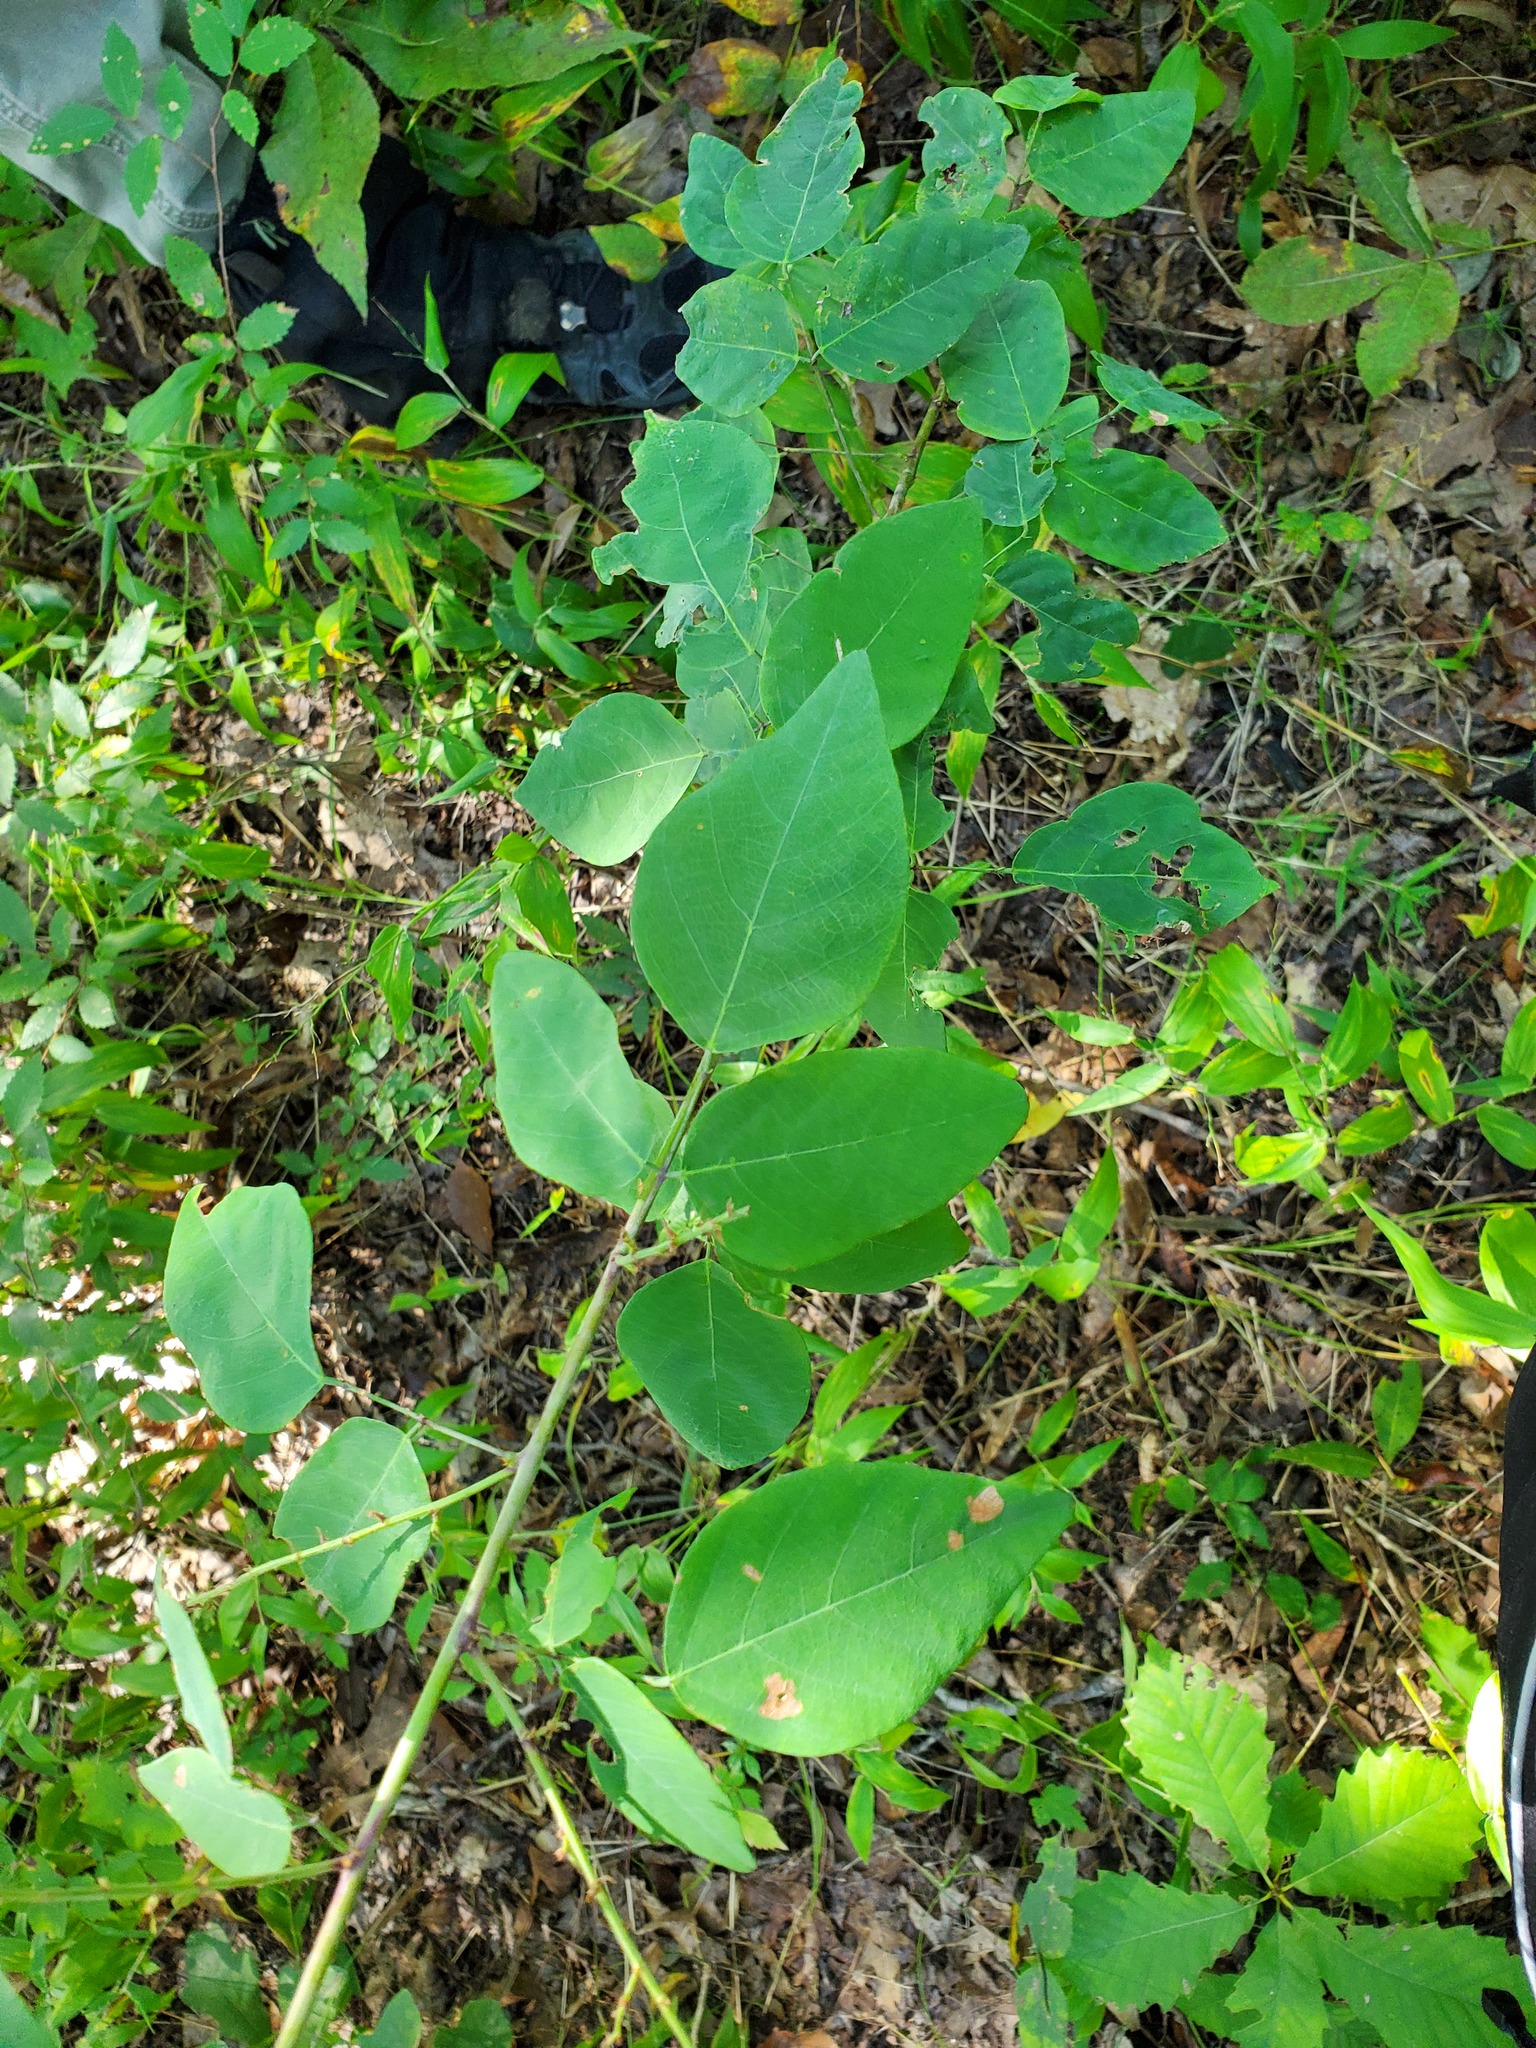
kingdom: Plantae
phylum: Tracheophyta
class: Magnoliopsida
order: Fabales
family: Fabaceae
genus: Desmodium
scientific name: Desmodium laevigatum
